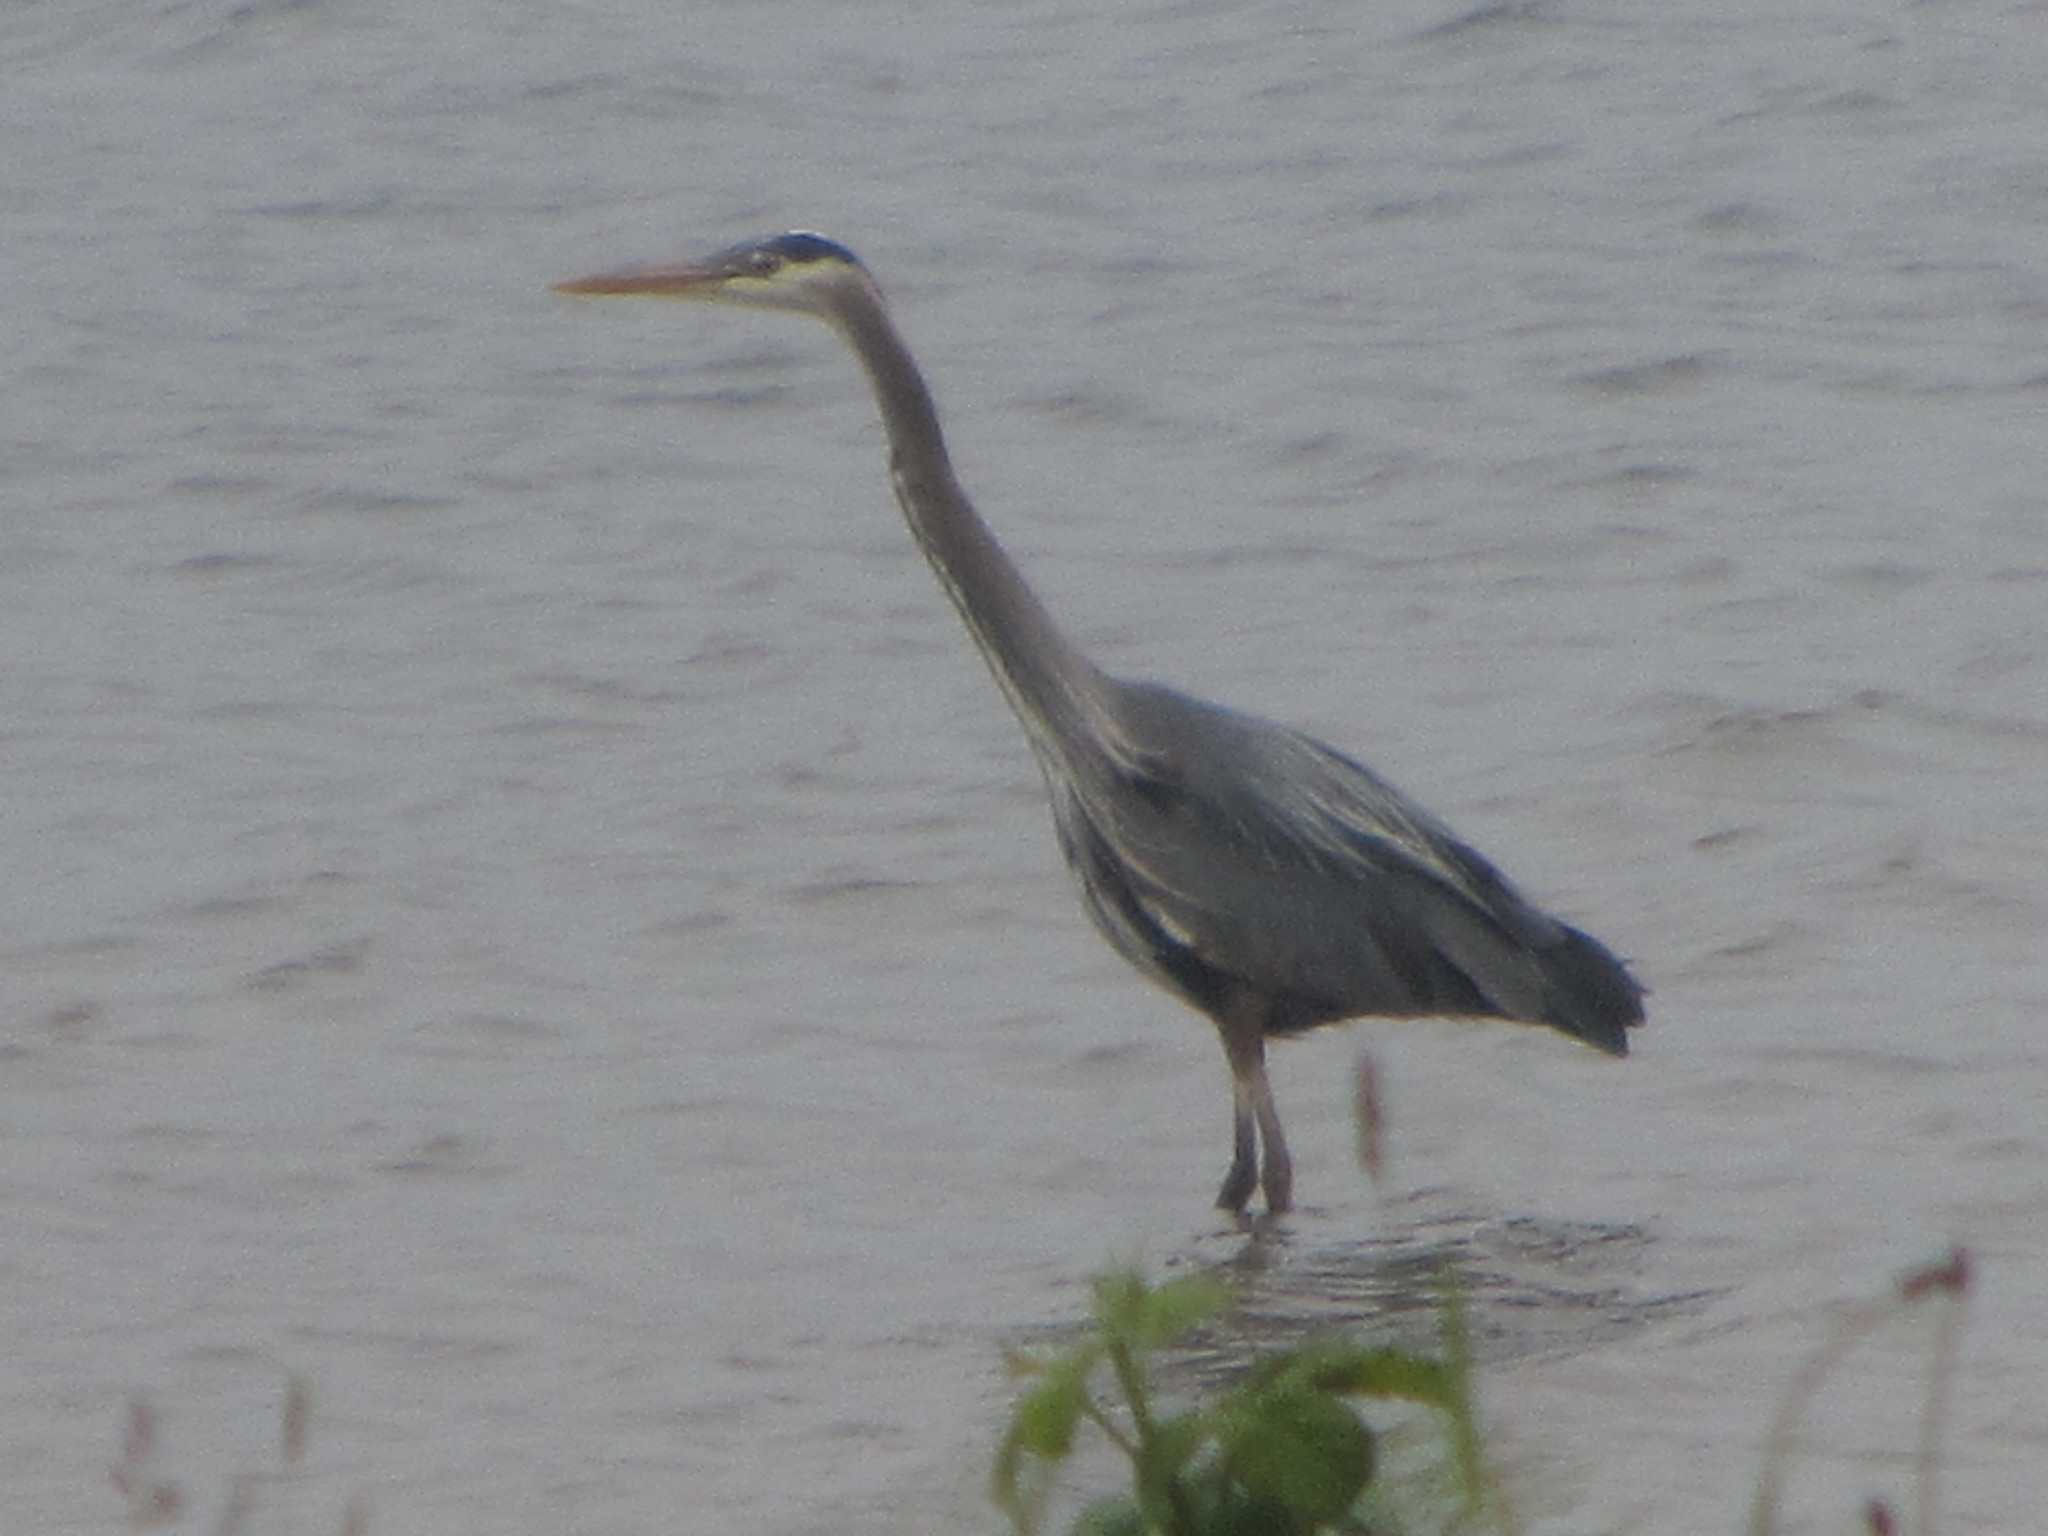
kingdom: Animalia
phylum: Chordata
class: Aves
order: Pelecaniformes
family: Ardeidae
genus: Ardea
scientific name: Ardea herodias
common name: Great blue heron
